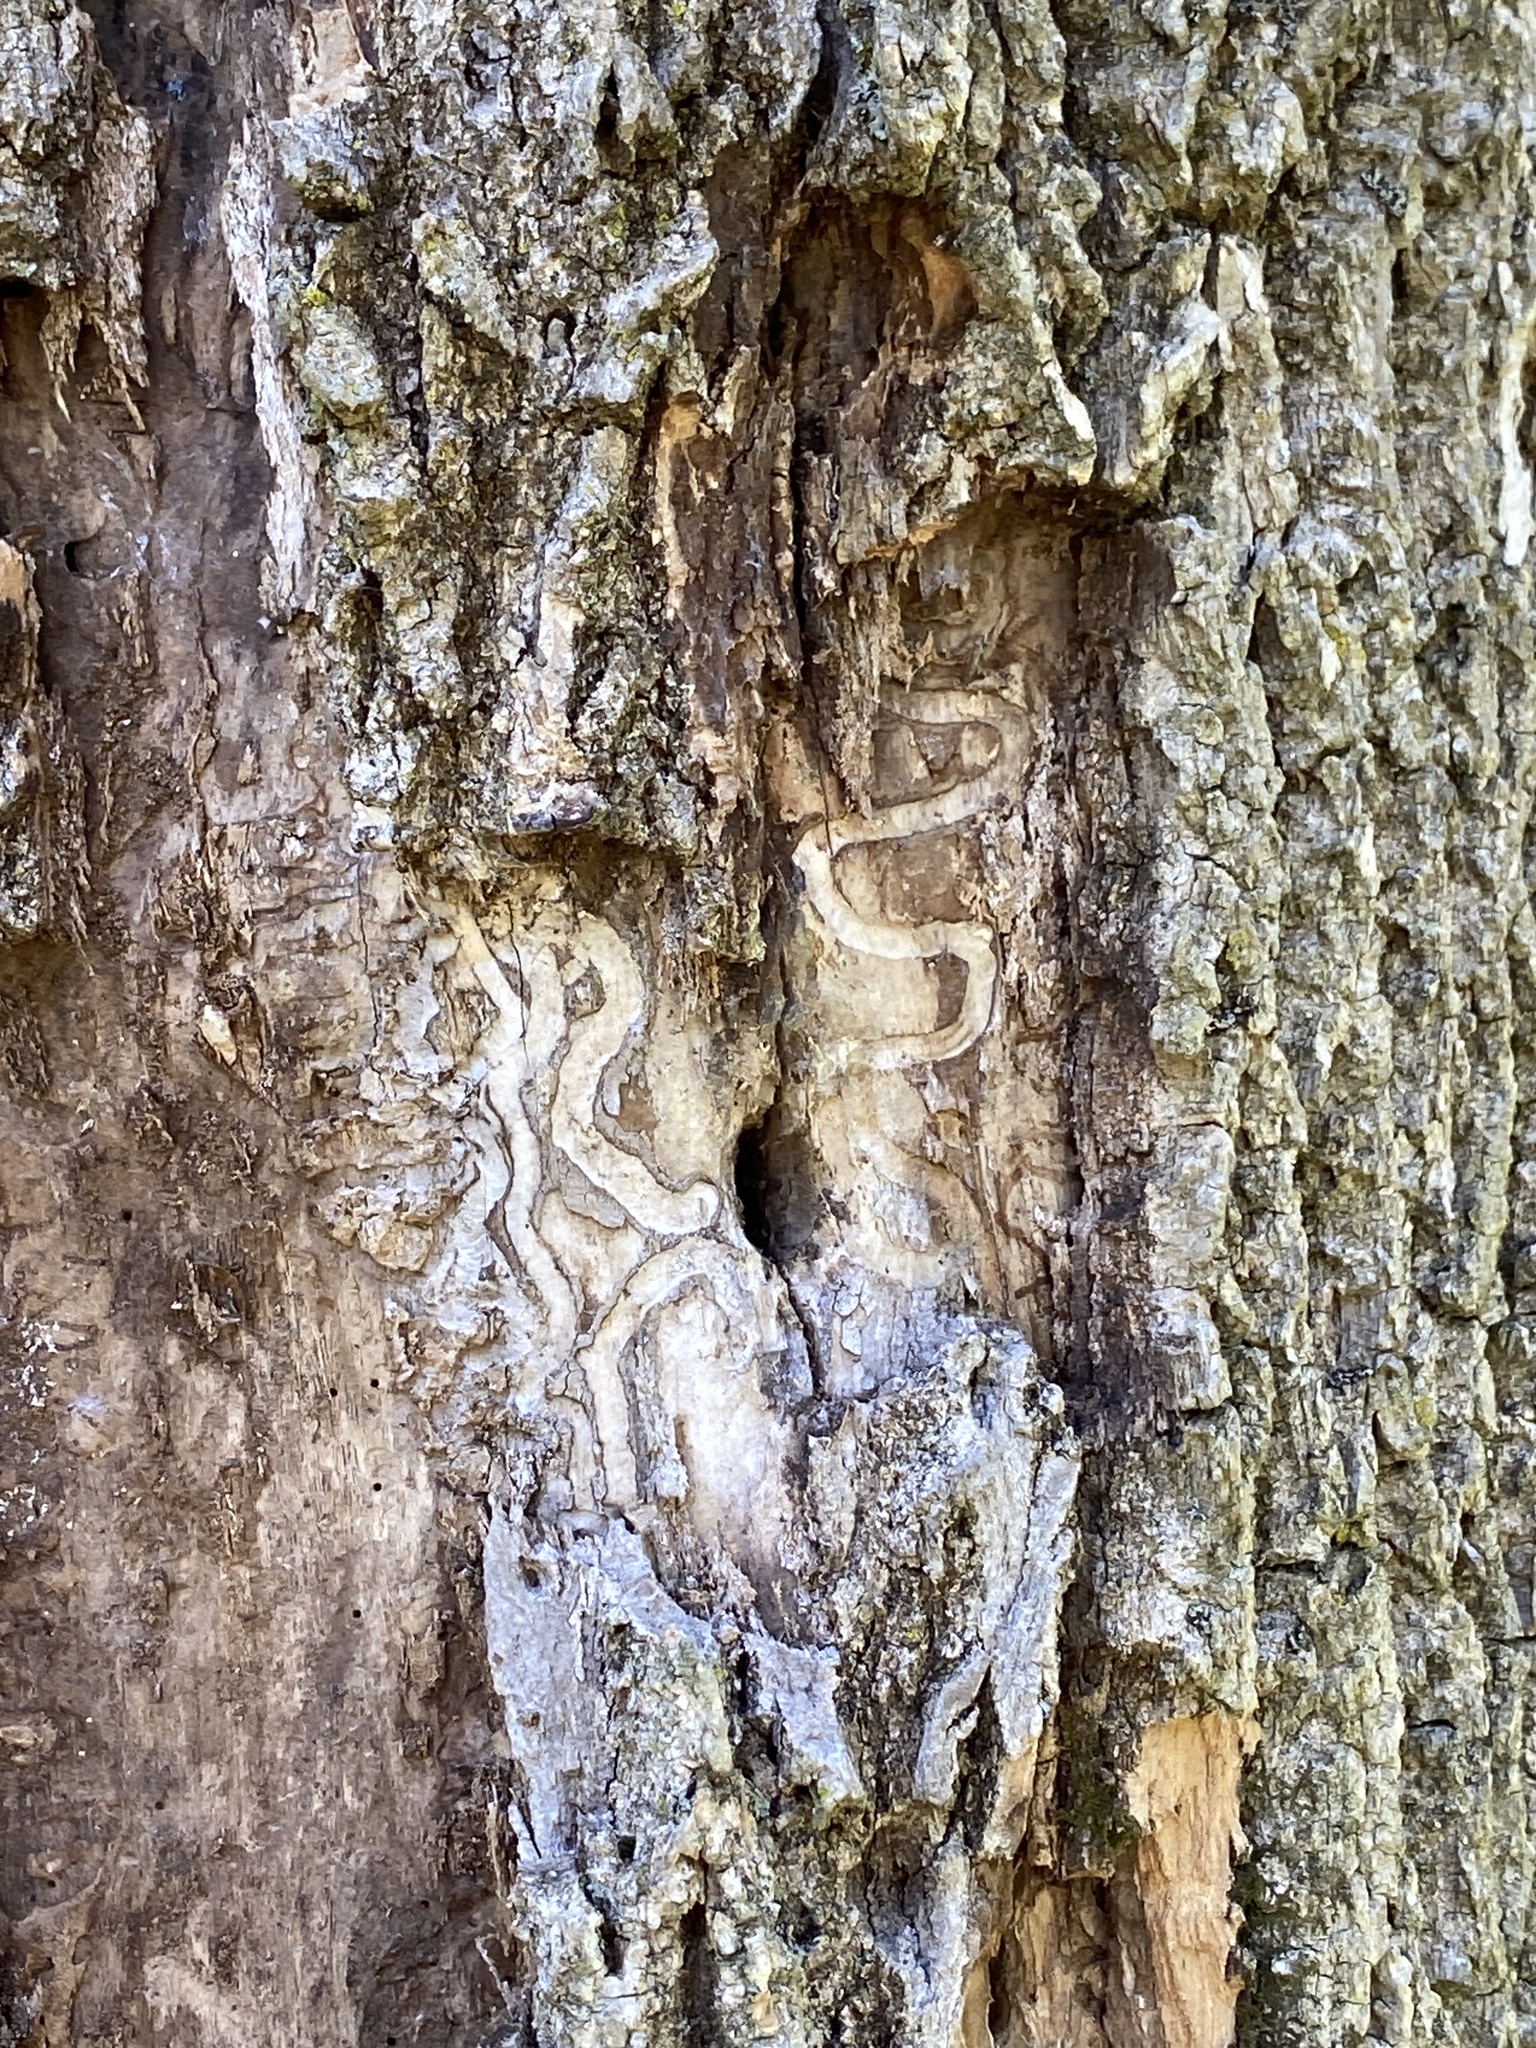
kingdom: Animalia
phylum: Arthropoda
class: Insecta
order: Coleoptera
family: Buprestidae
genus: Agrilus
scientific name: Agrilus planipennis
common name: Emerald ash borer
